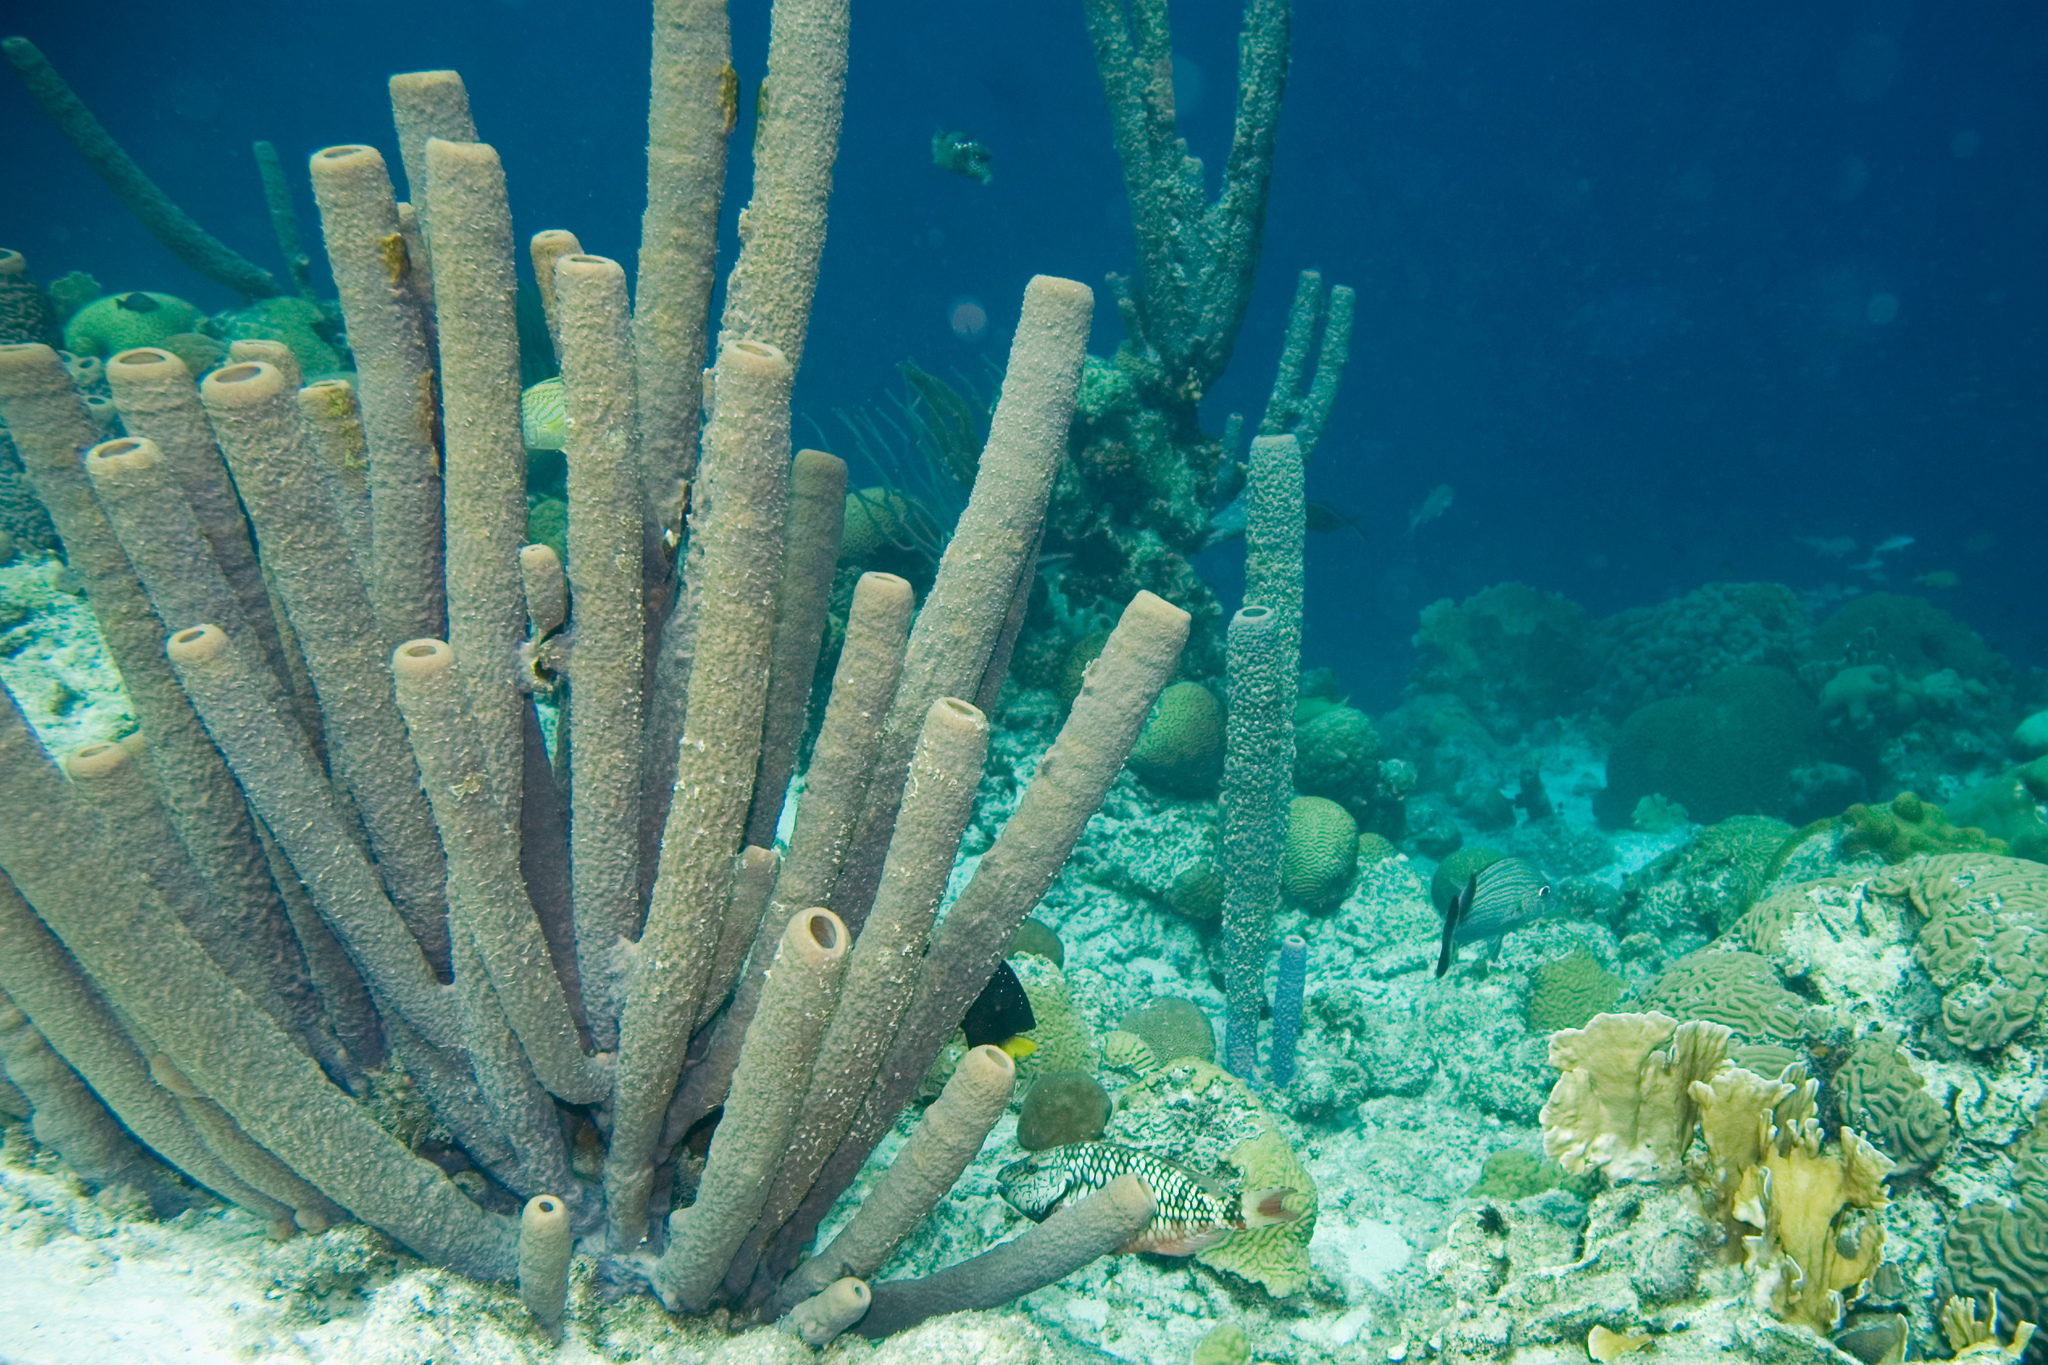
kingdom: Animalia
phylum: Porifera
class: Demospongiae
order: Verongiida
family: Aplysinidae
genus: Aplysina
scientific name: Aplysina archeri
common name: Stove-pipe sponge
